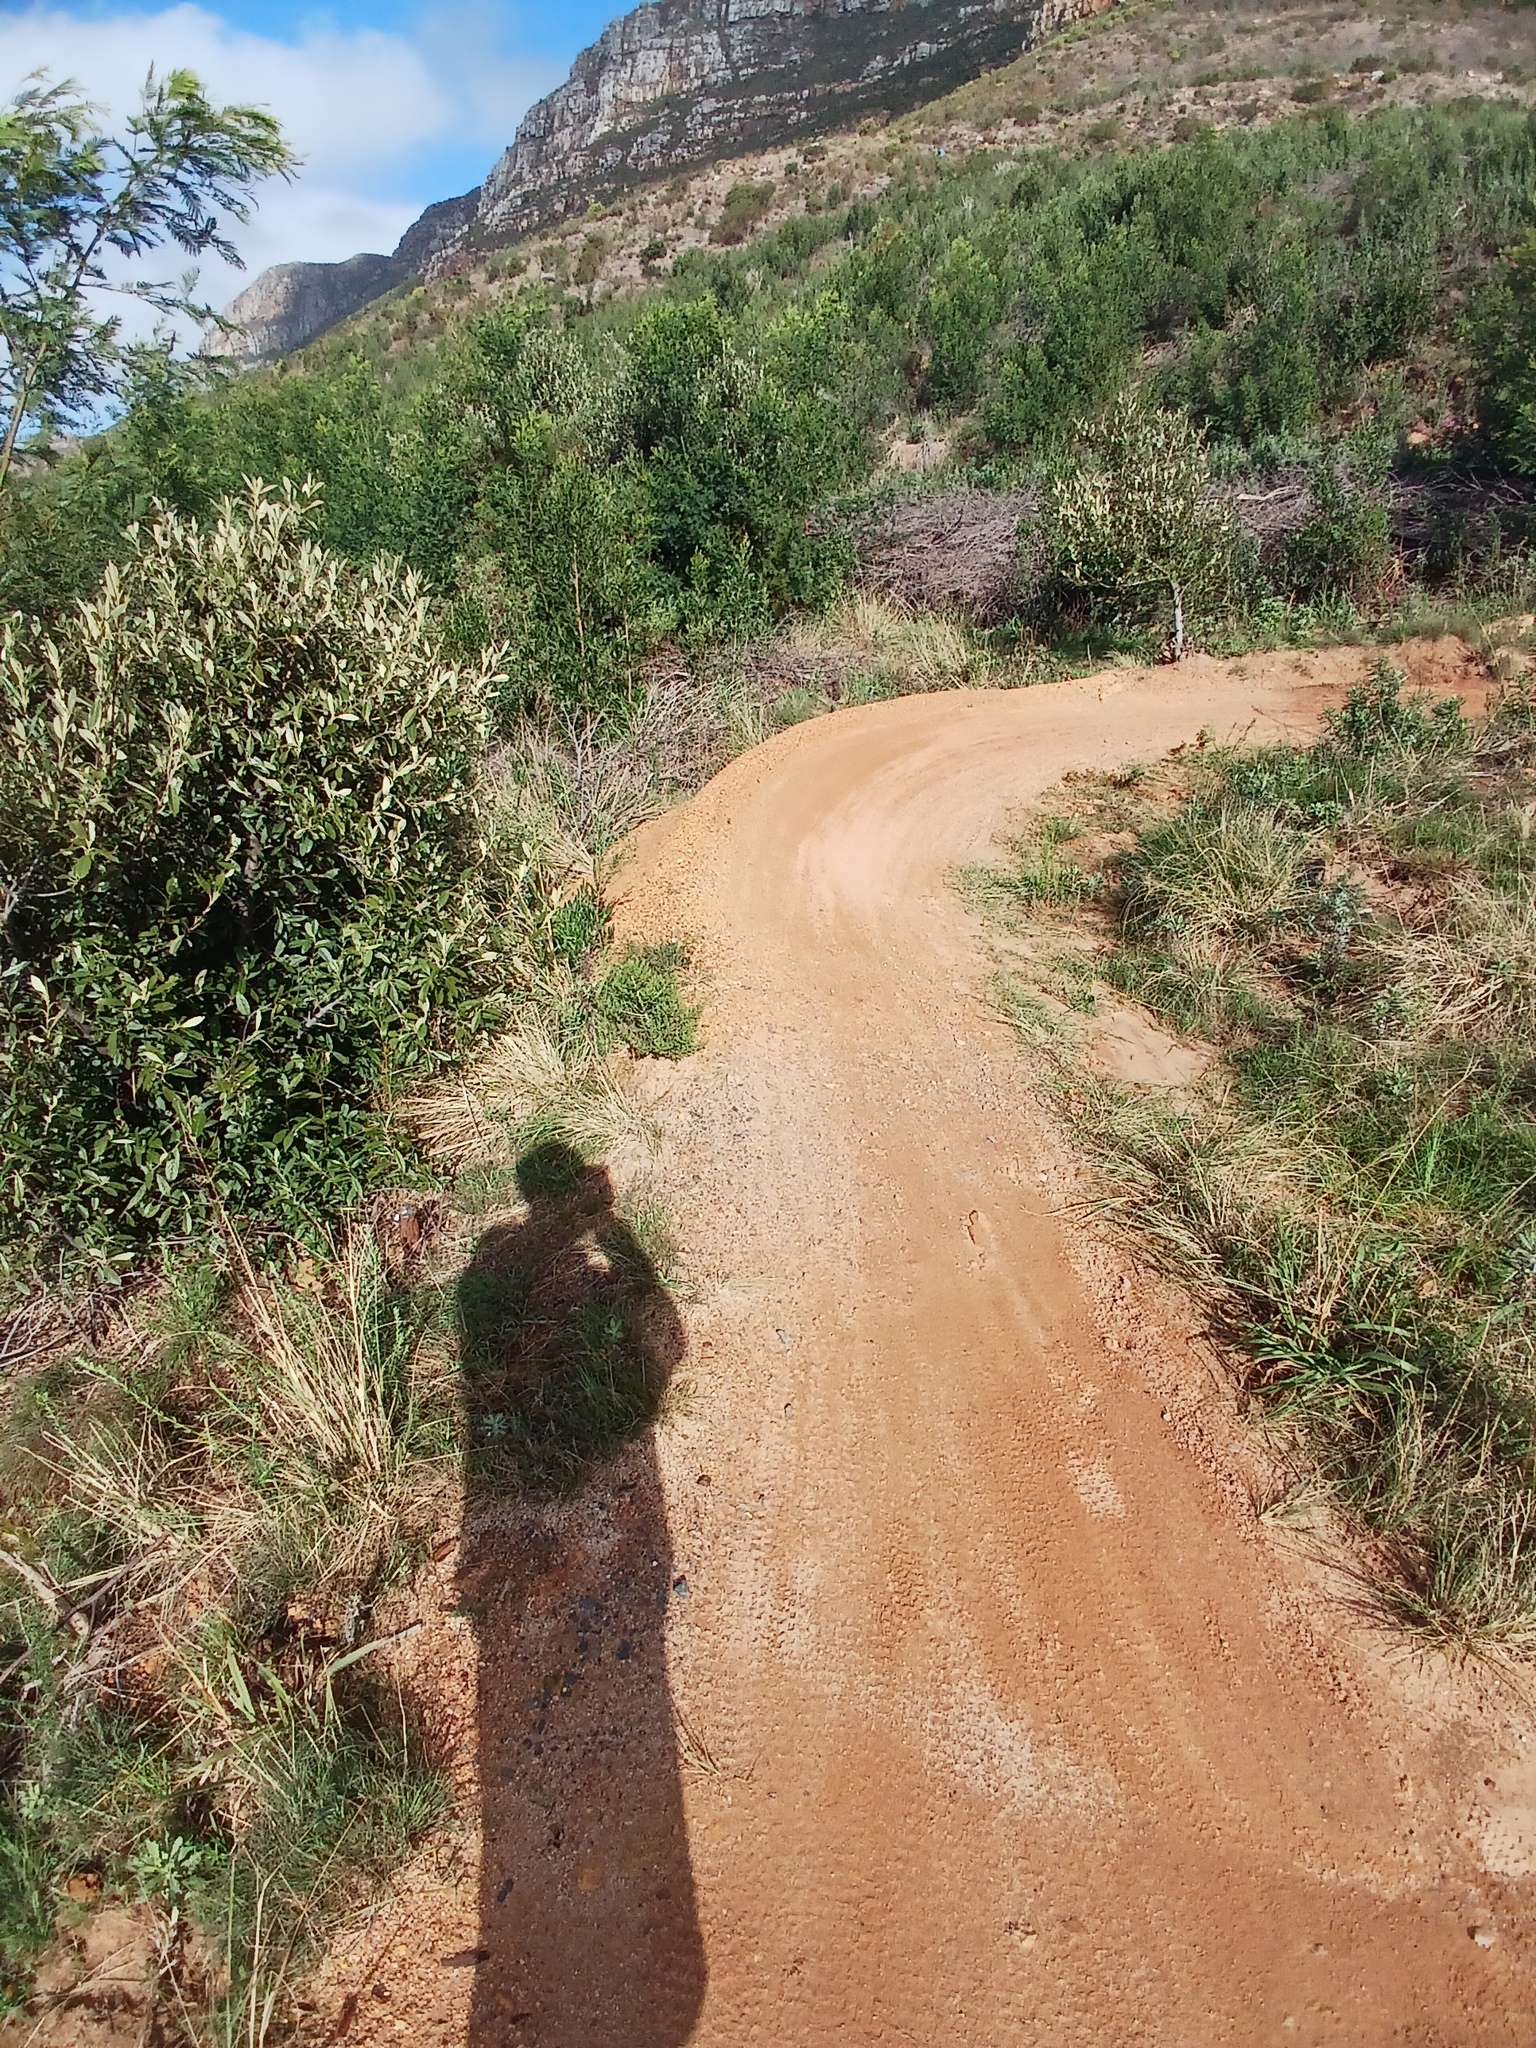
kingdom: Plantae
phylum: Tracheophyta
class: Magnoliopsida
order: Malpighiales
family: Achariaceae
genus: Kiggelaria
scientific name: Kiggelaria africana
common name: Wild peach
